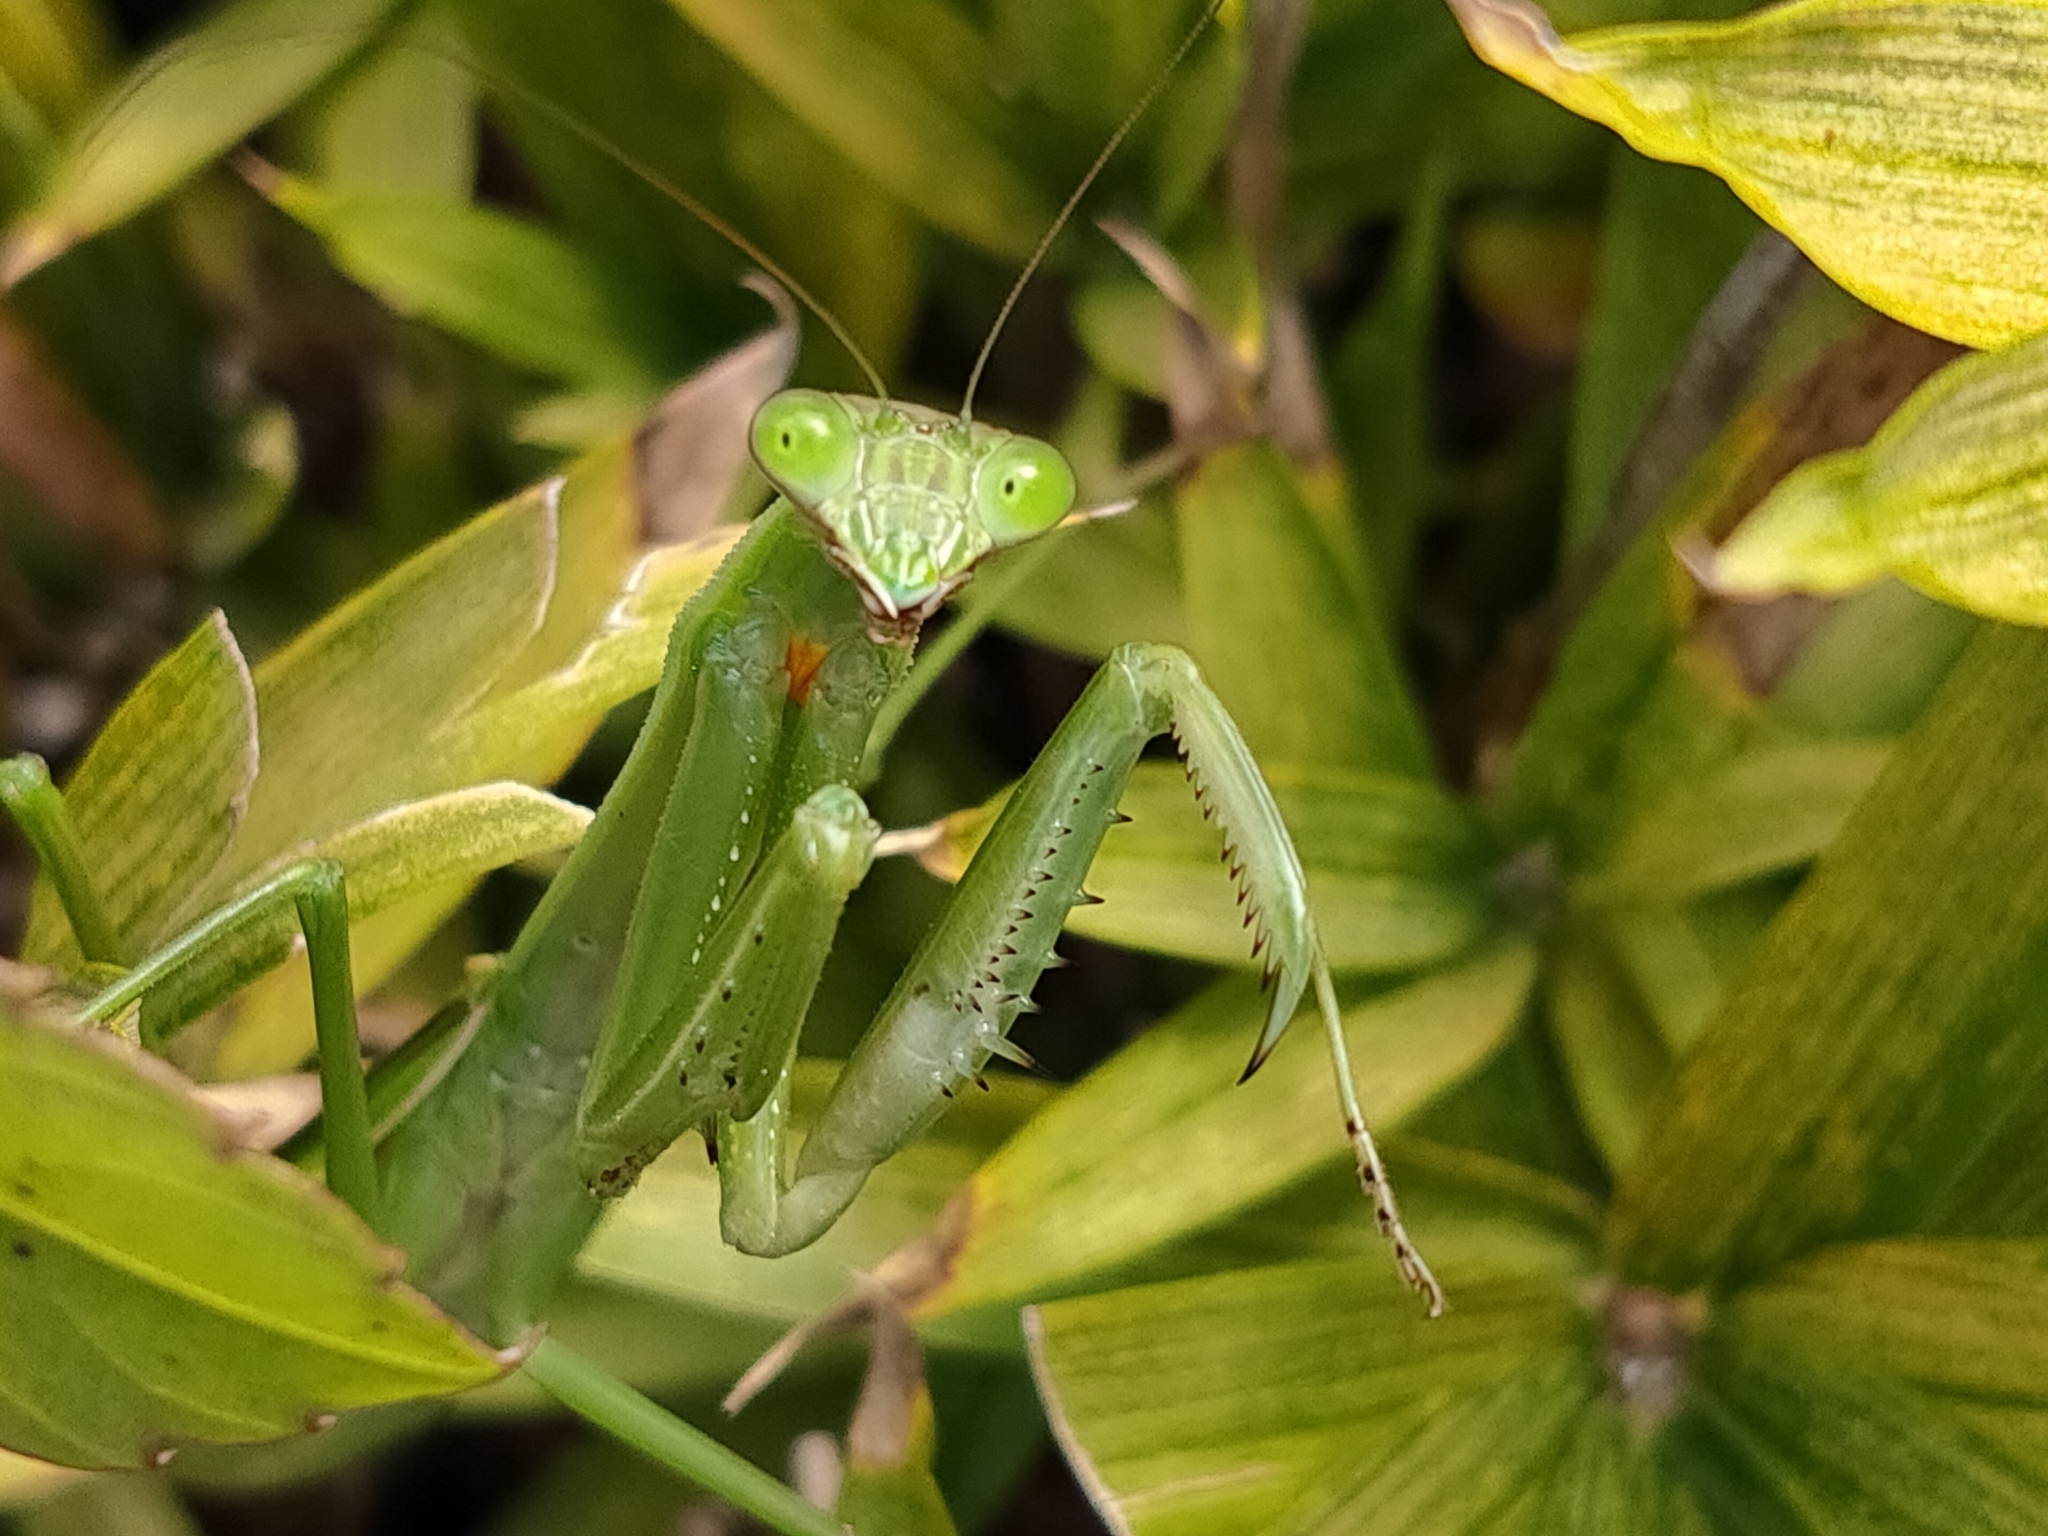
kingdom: Animalia
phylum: Arthropoda
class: Insecta
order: Mantodea
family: Mantidae
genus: Tenodera
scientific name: Tenodera angustipennis
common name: Asian mantis
